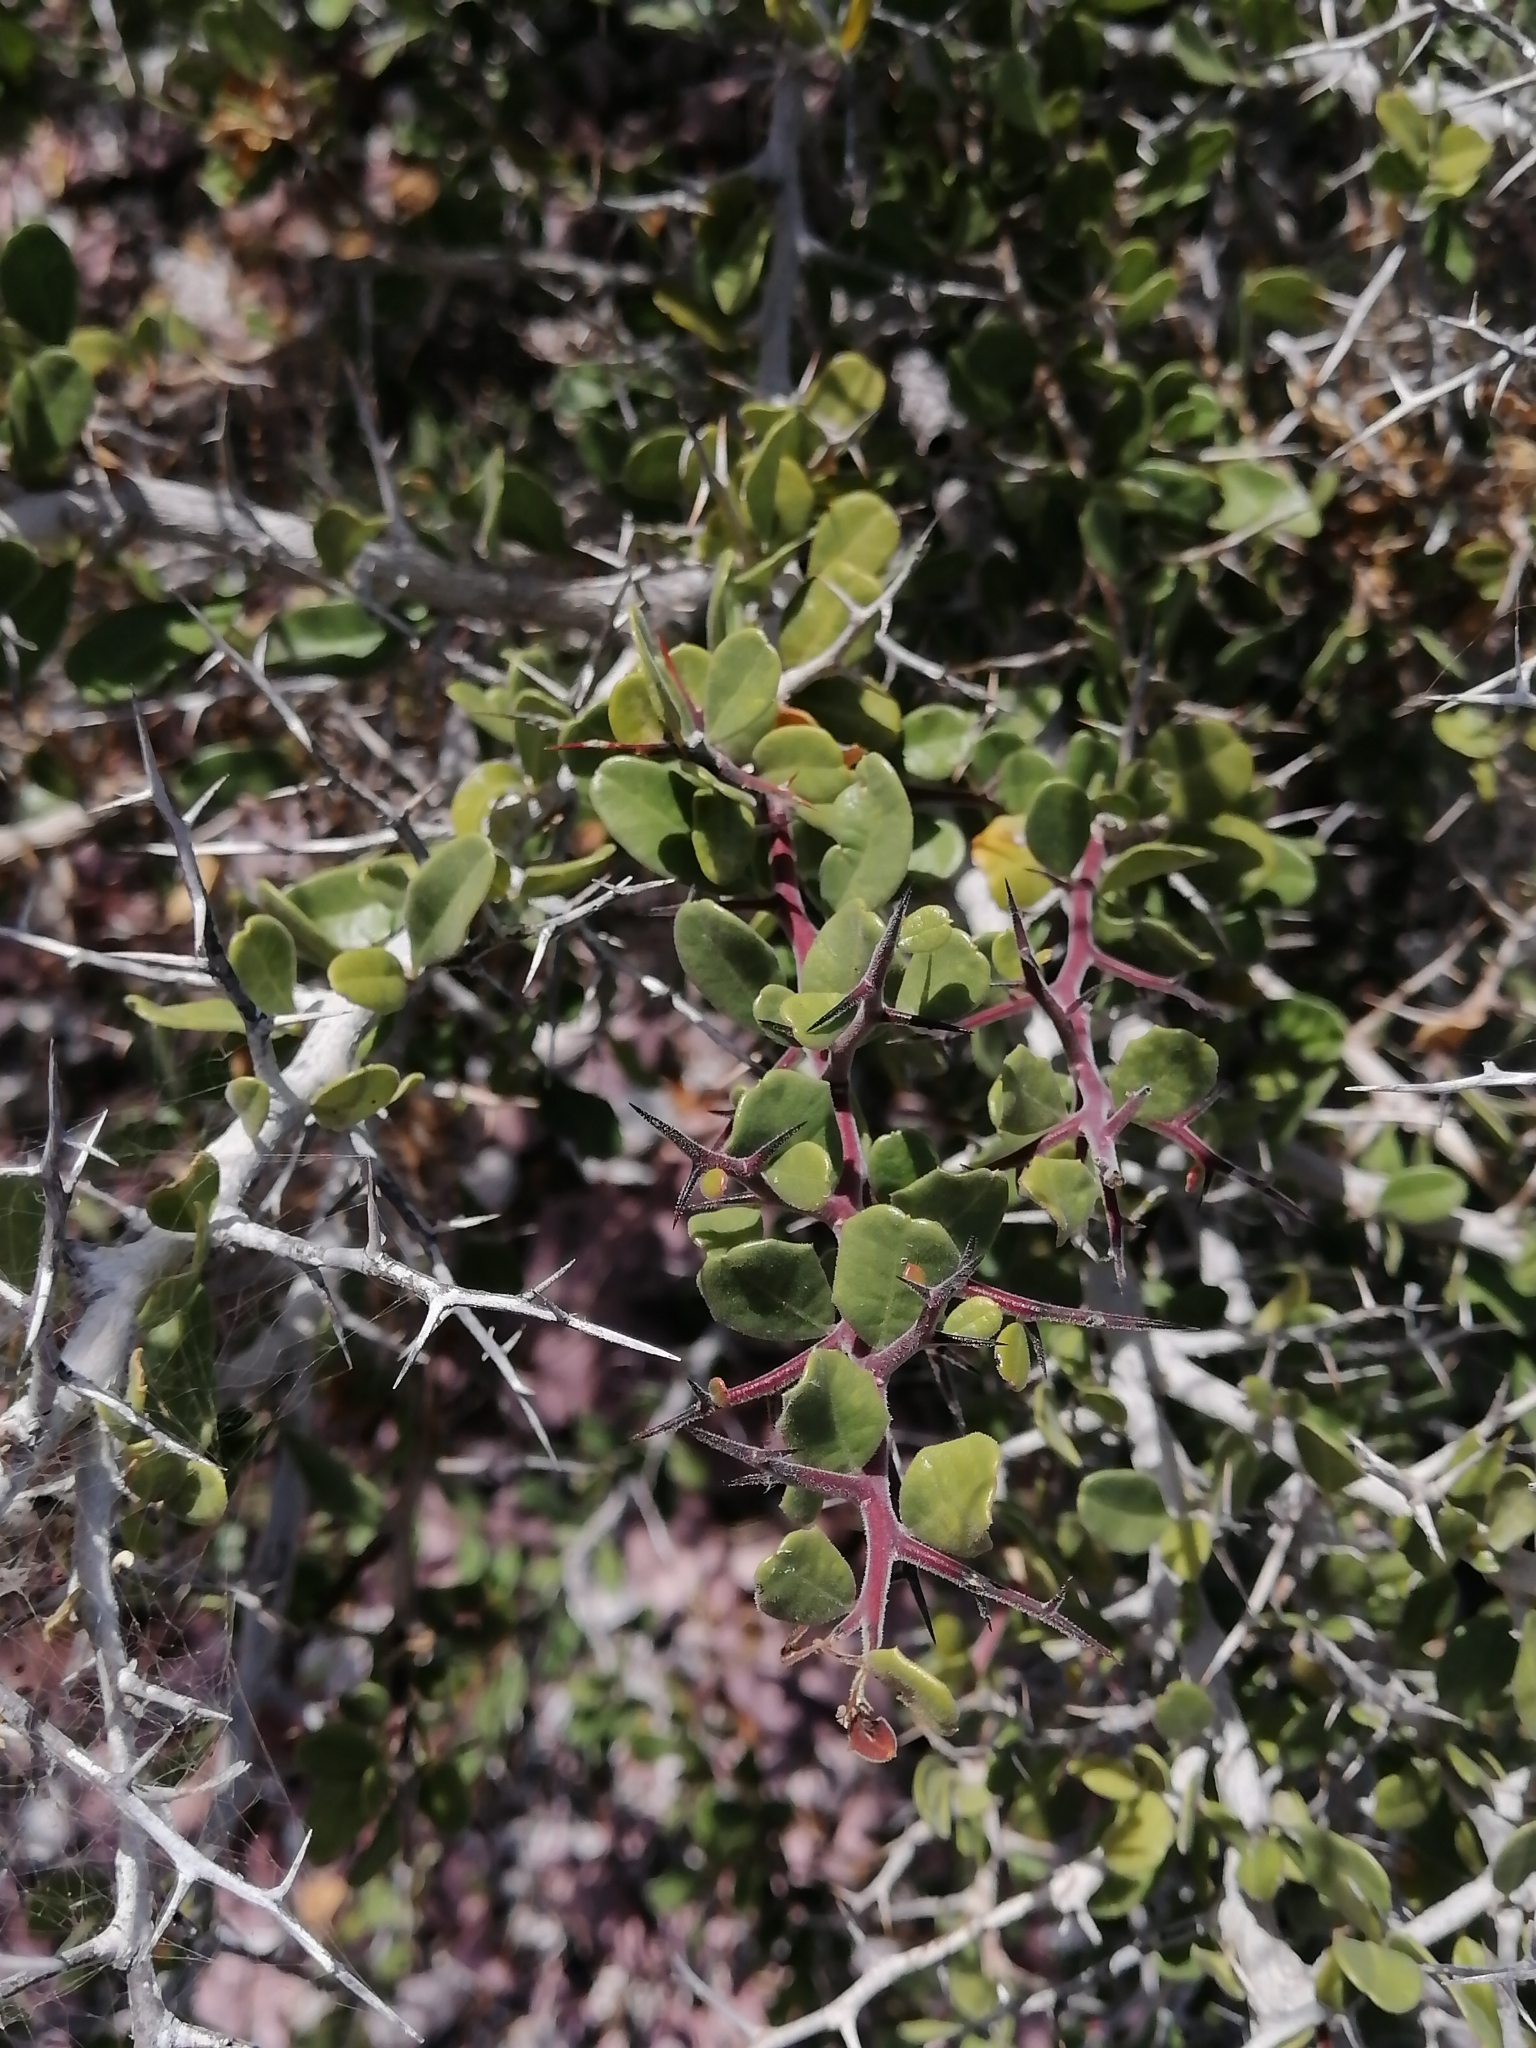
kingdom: Plantae
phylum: Tracheophyta
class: Magnoliopsida
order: Sapindales
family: Simaroubaceae
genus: Castela
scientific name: Castela peninsularis
